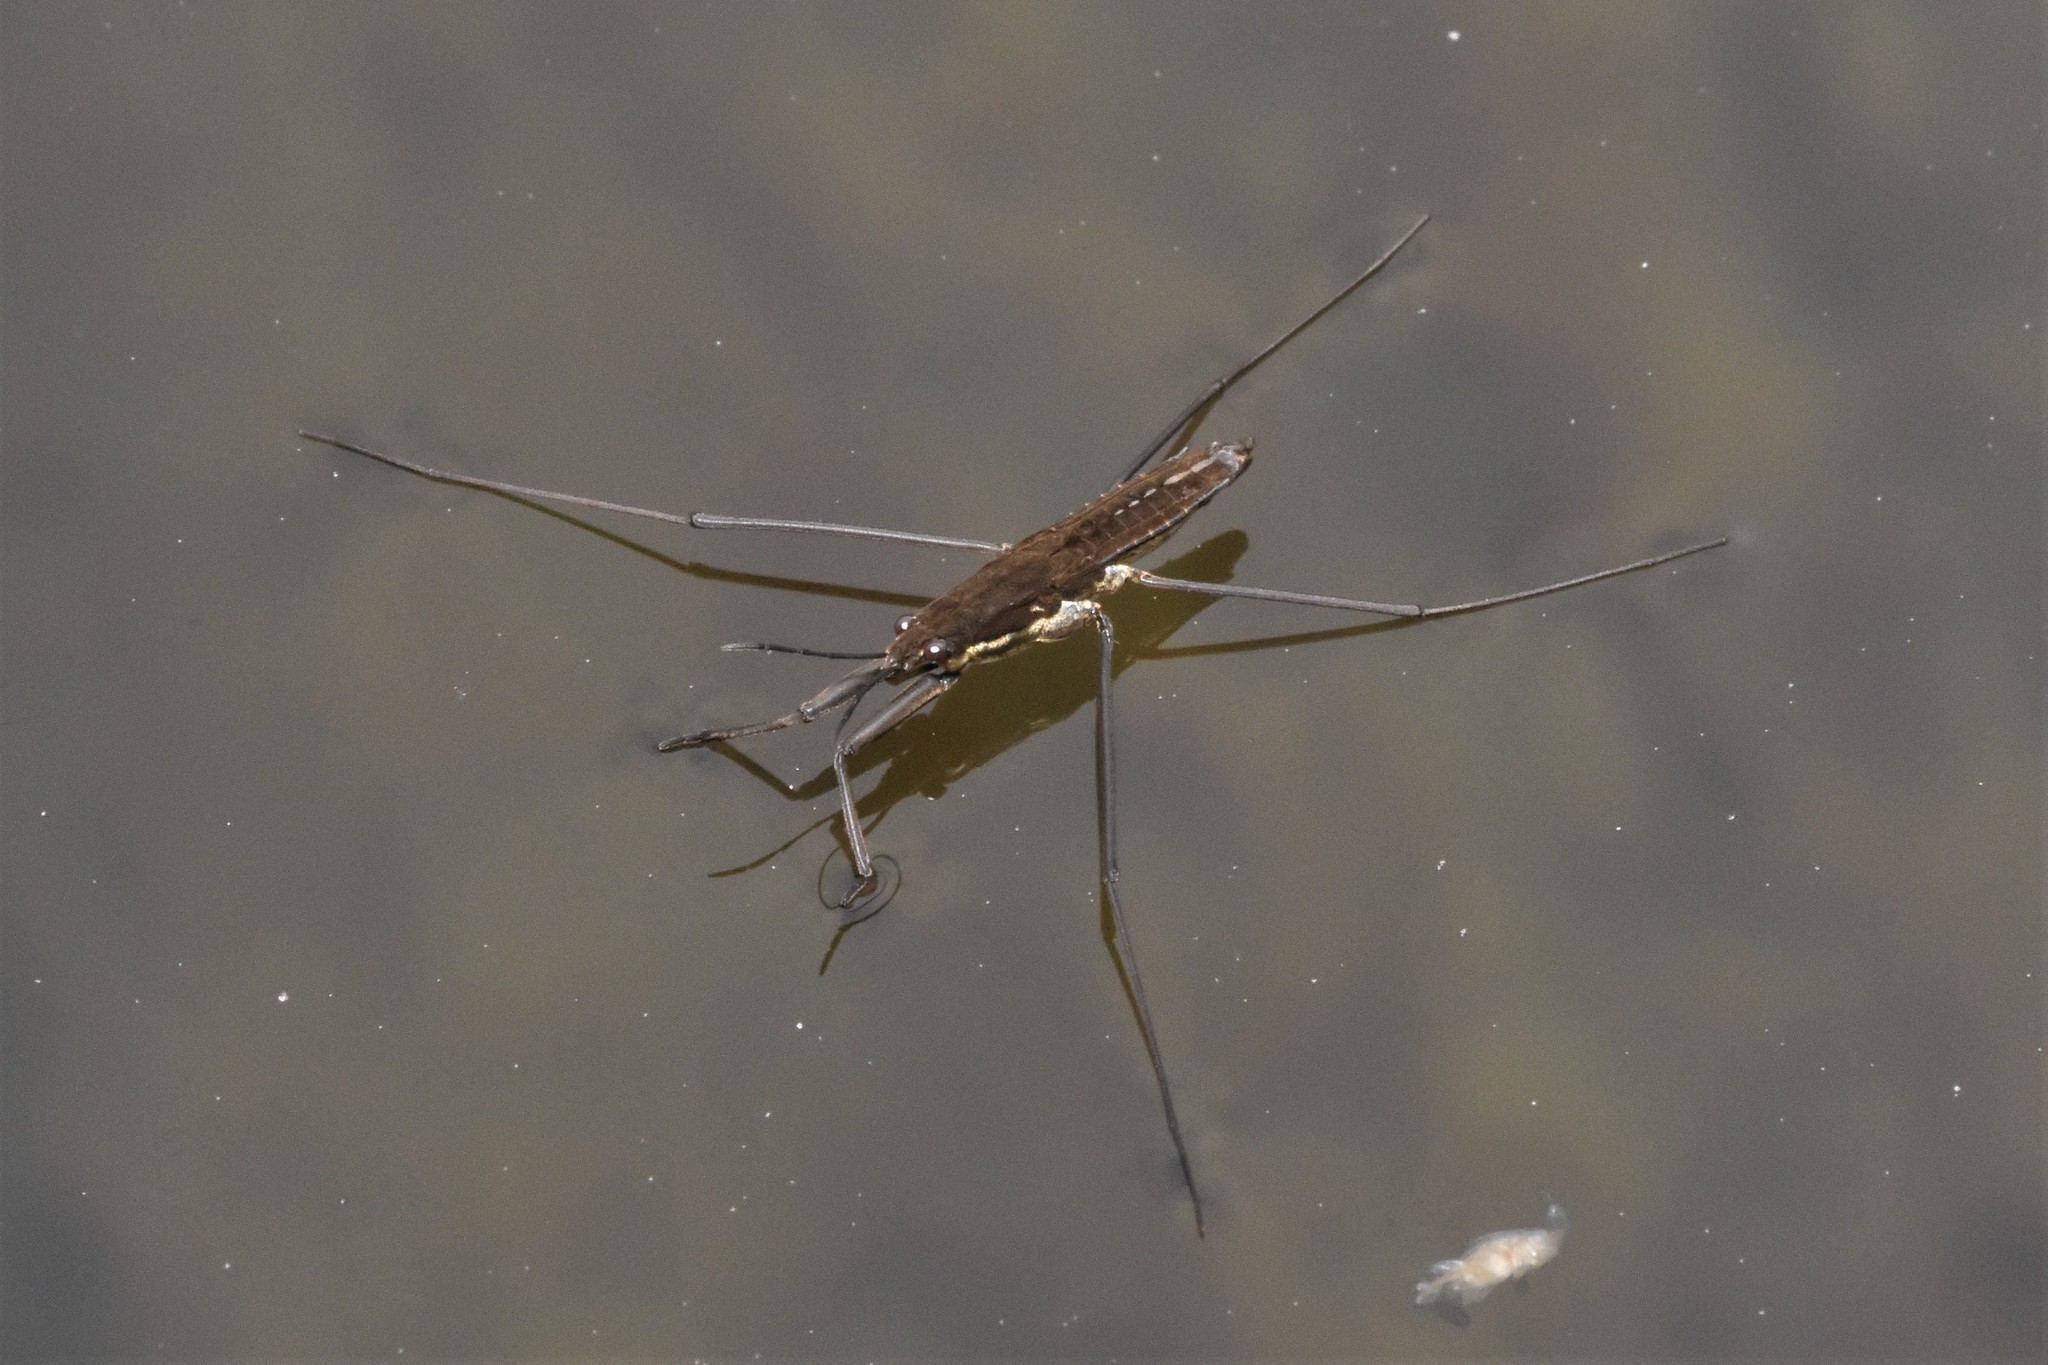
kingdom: Animalia
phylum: Arthropoda
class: Insecta
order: Hemiptera
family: Gerridae
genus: Aquarius
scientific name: Aquarius remigis
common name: Common water strider
